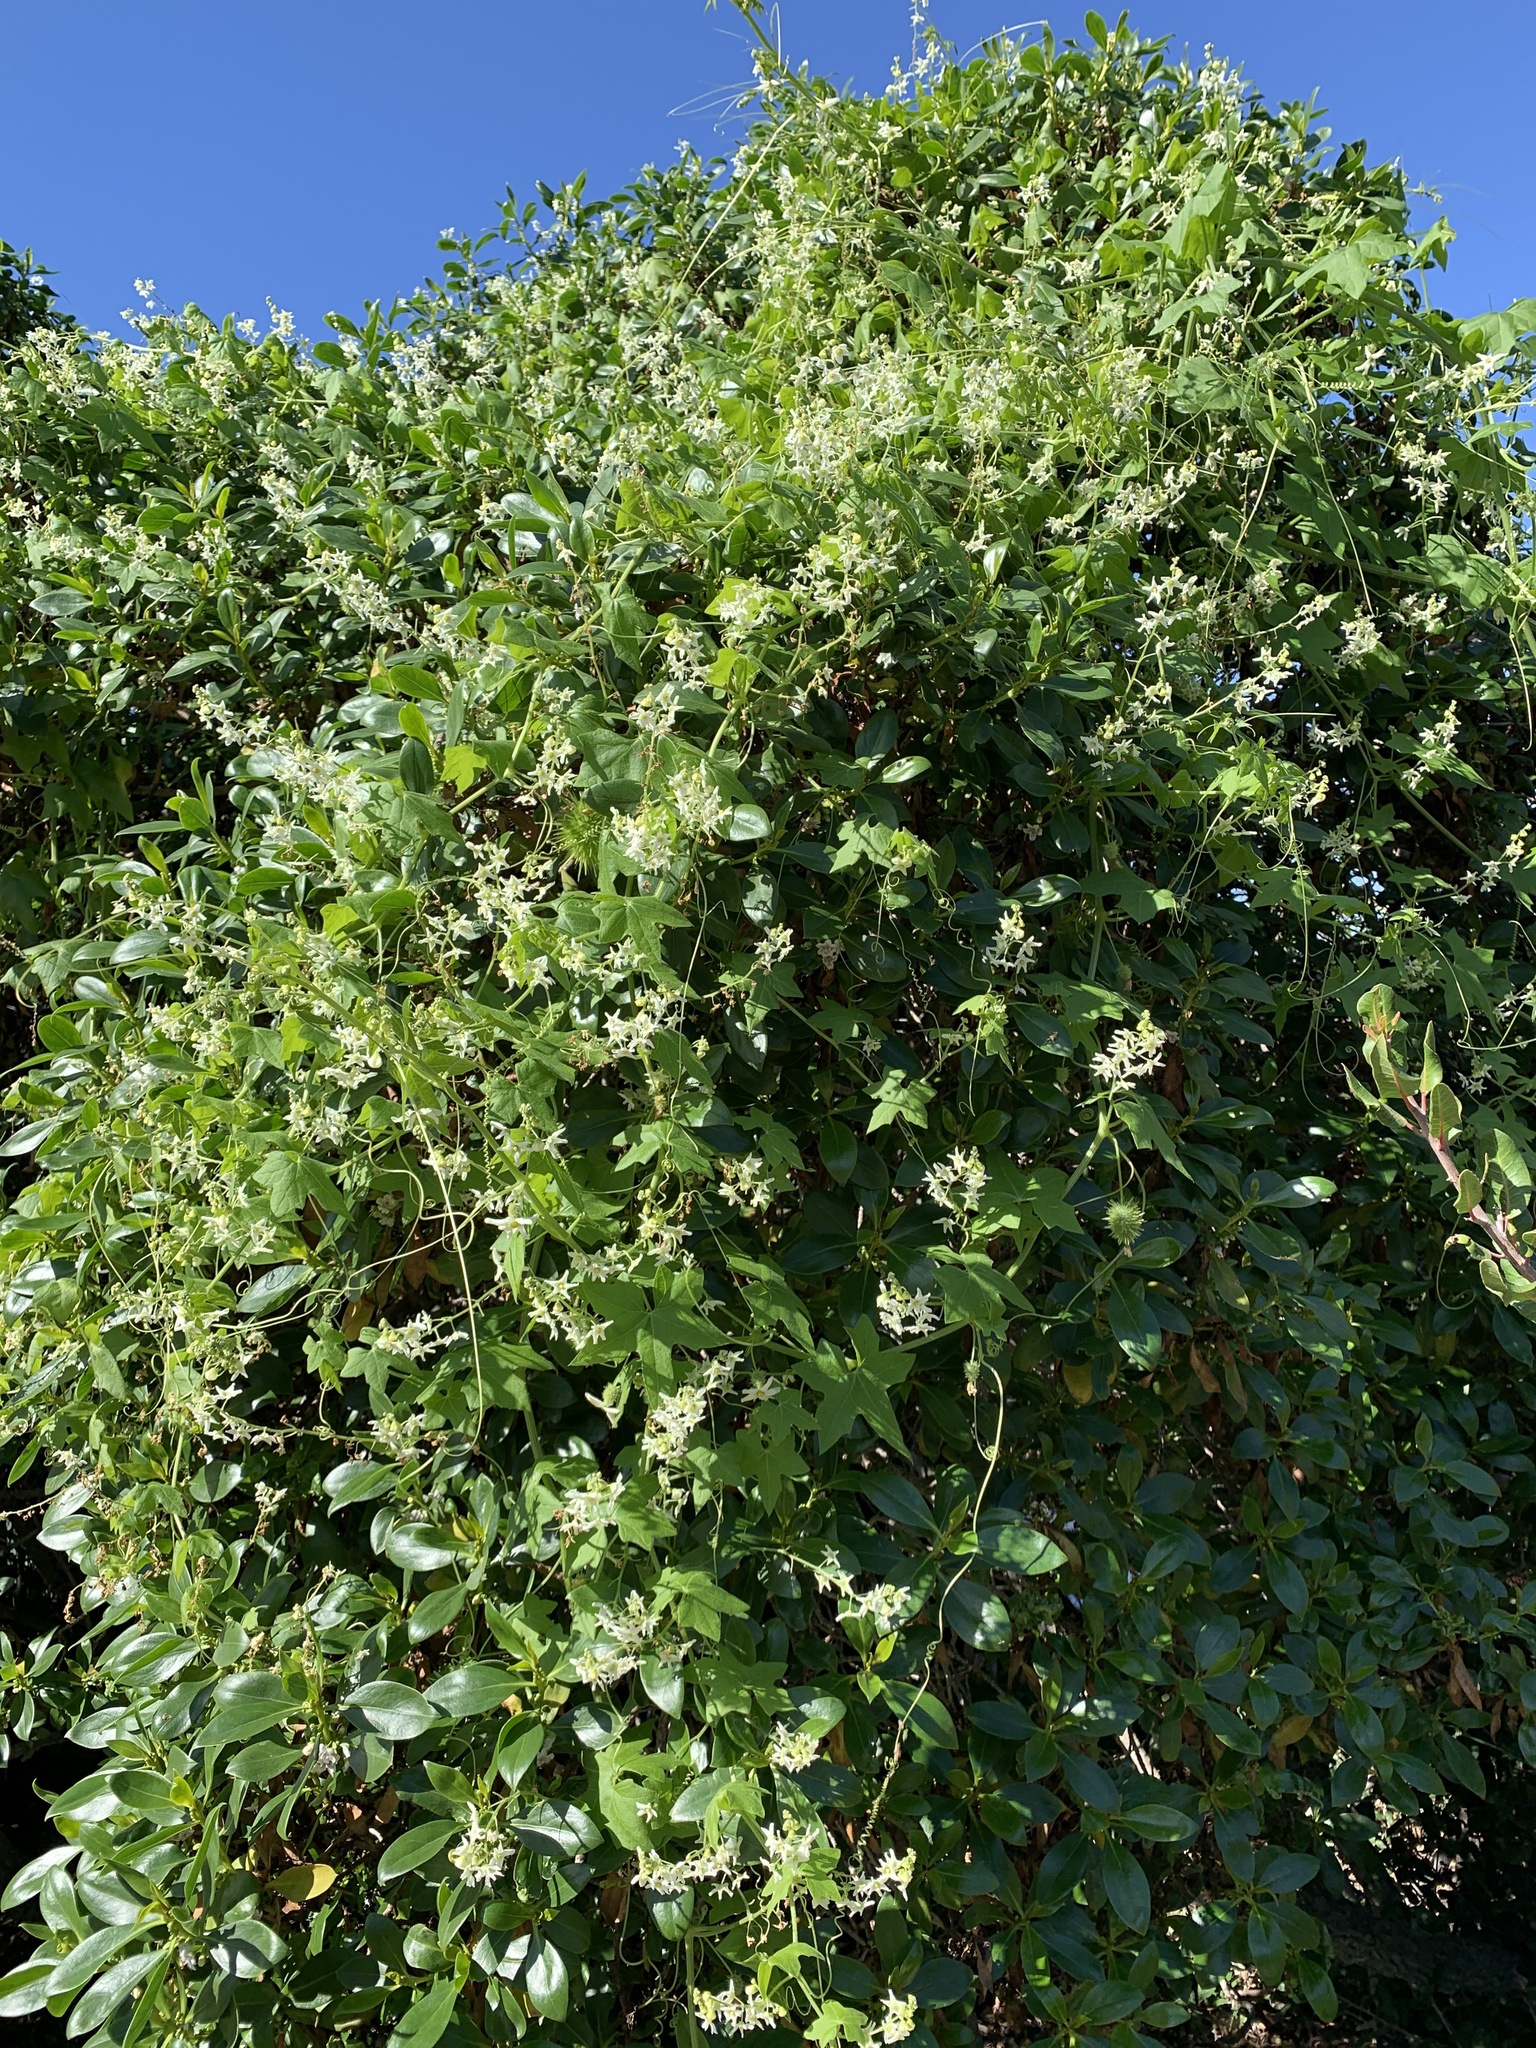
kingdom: Plantae
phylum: Tracheophyta
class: Magnoliopsida
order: Cucurbitales
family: Cucurbitaceae
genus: Marah
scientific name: Marah macrocarpa
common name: Cucamonga manroot
